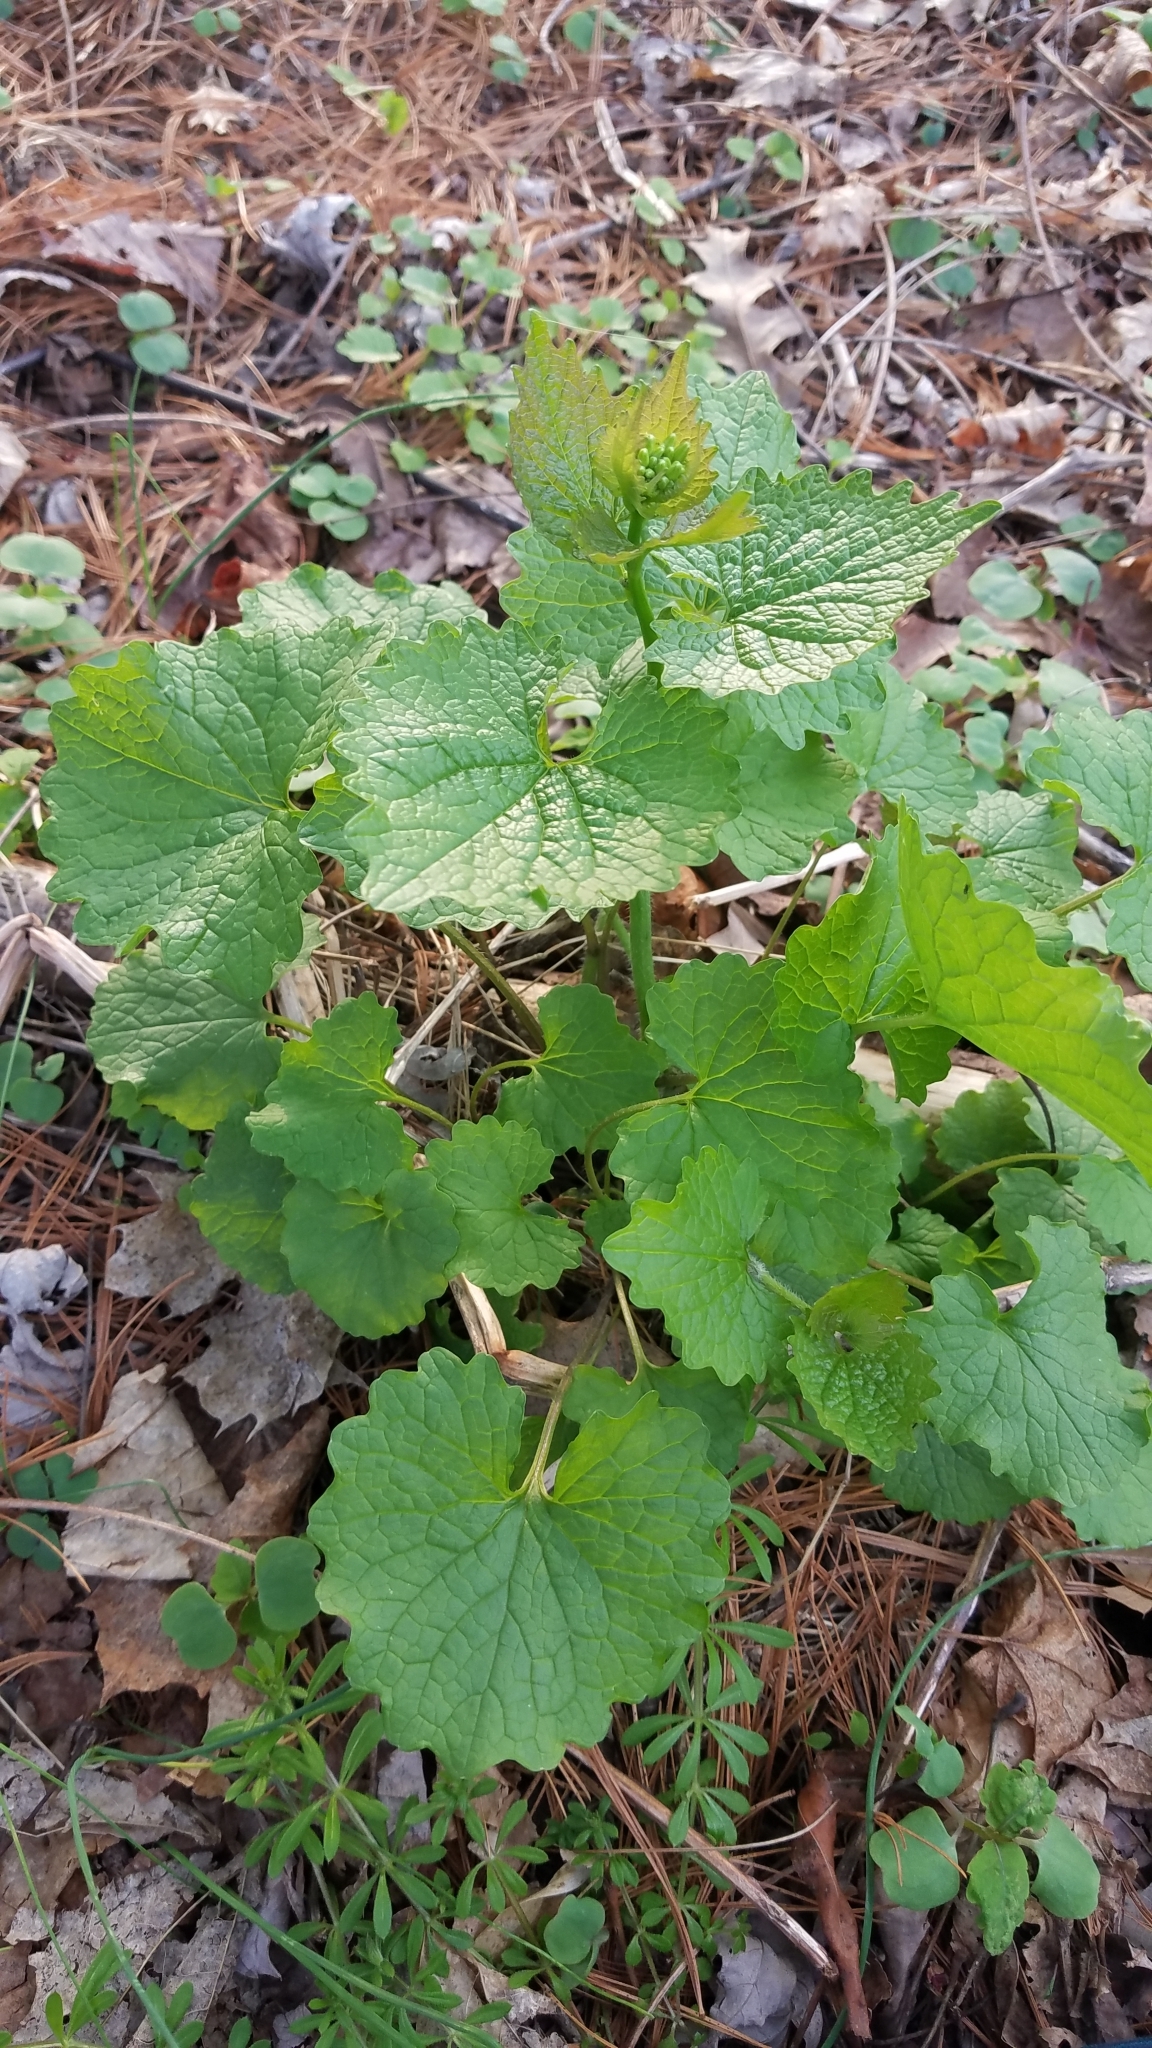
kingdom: Plantae
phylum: Tracheophyta
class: Magnoliopsida
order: Brassicales
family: Brassicaceae
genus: Alliaria
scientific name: Alliaria petiolata
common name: Garlic mustard
